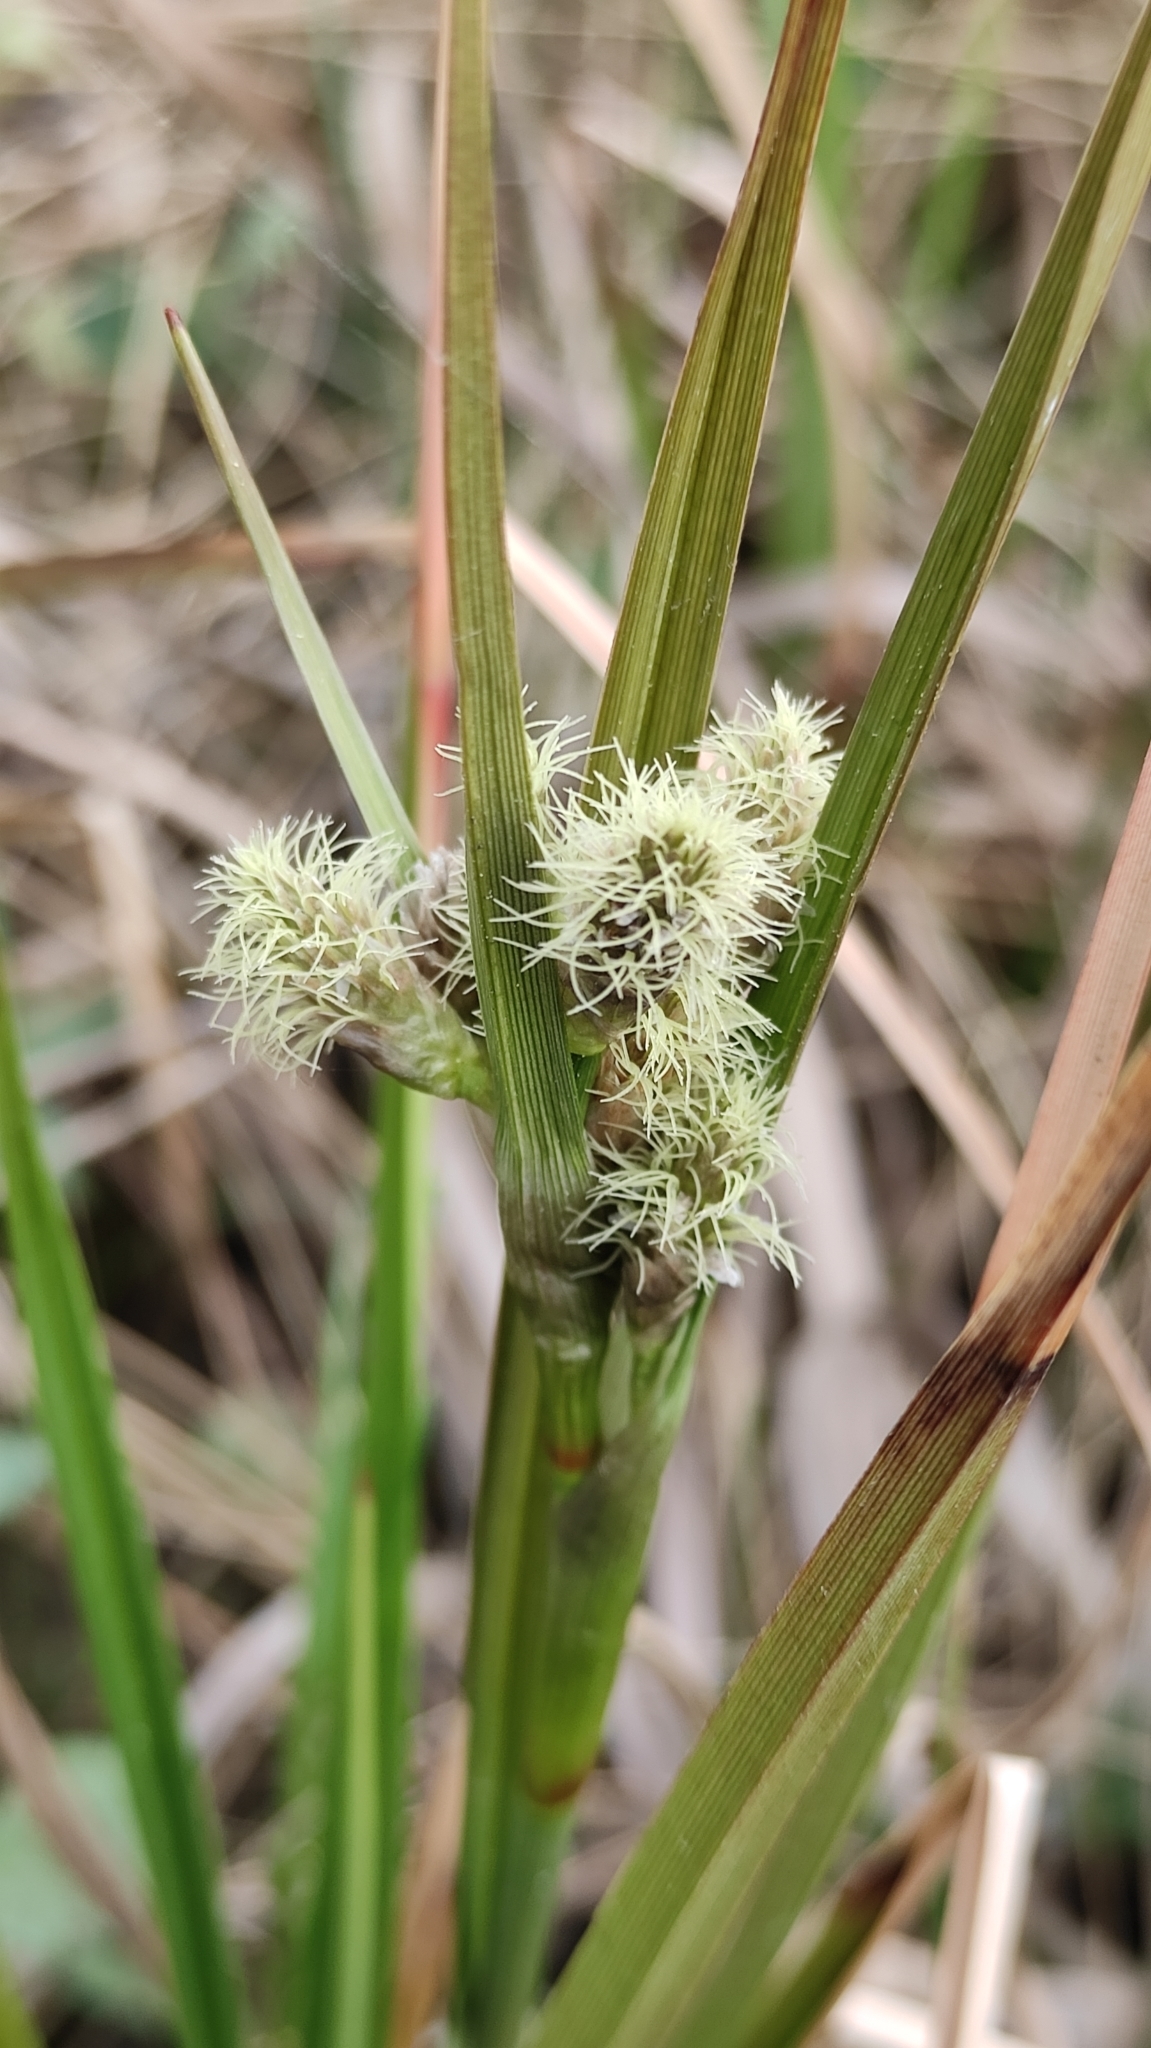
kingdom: Plantae
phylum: Tracheophyta
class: Liliopsida
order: Poales
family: Cyperaceae
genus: Eriophorum
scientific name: Eriophorum angustifolium
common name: Common cottongrass
